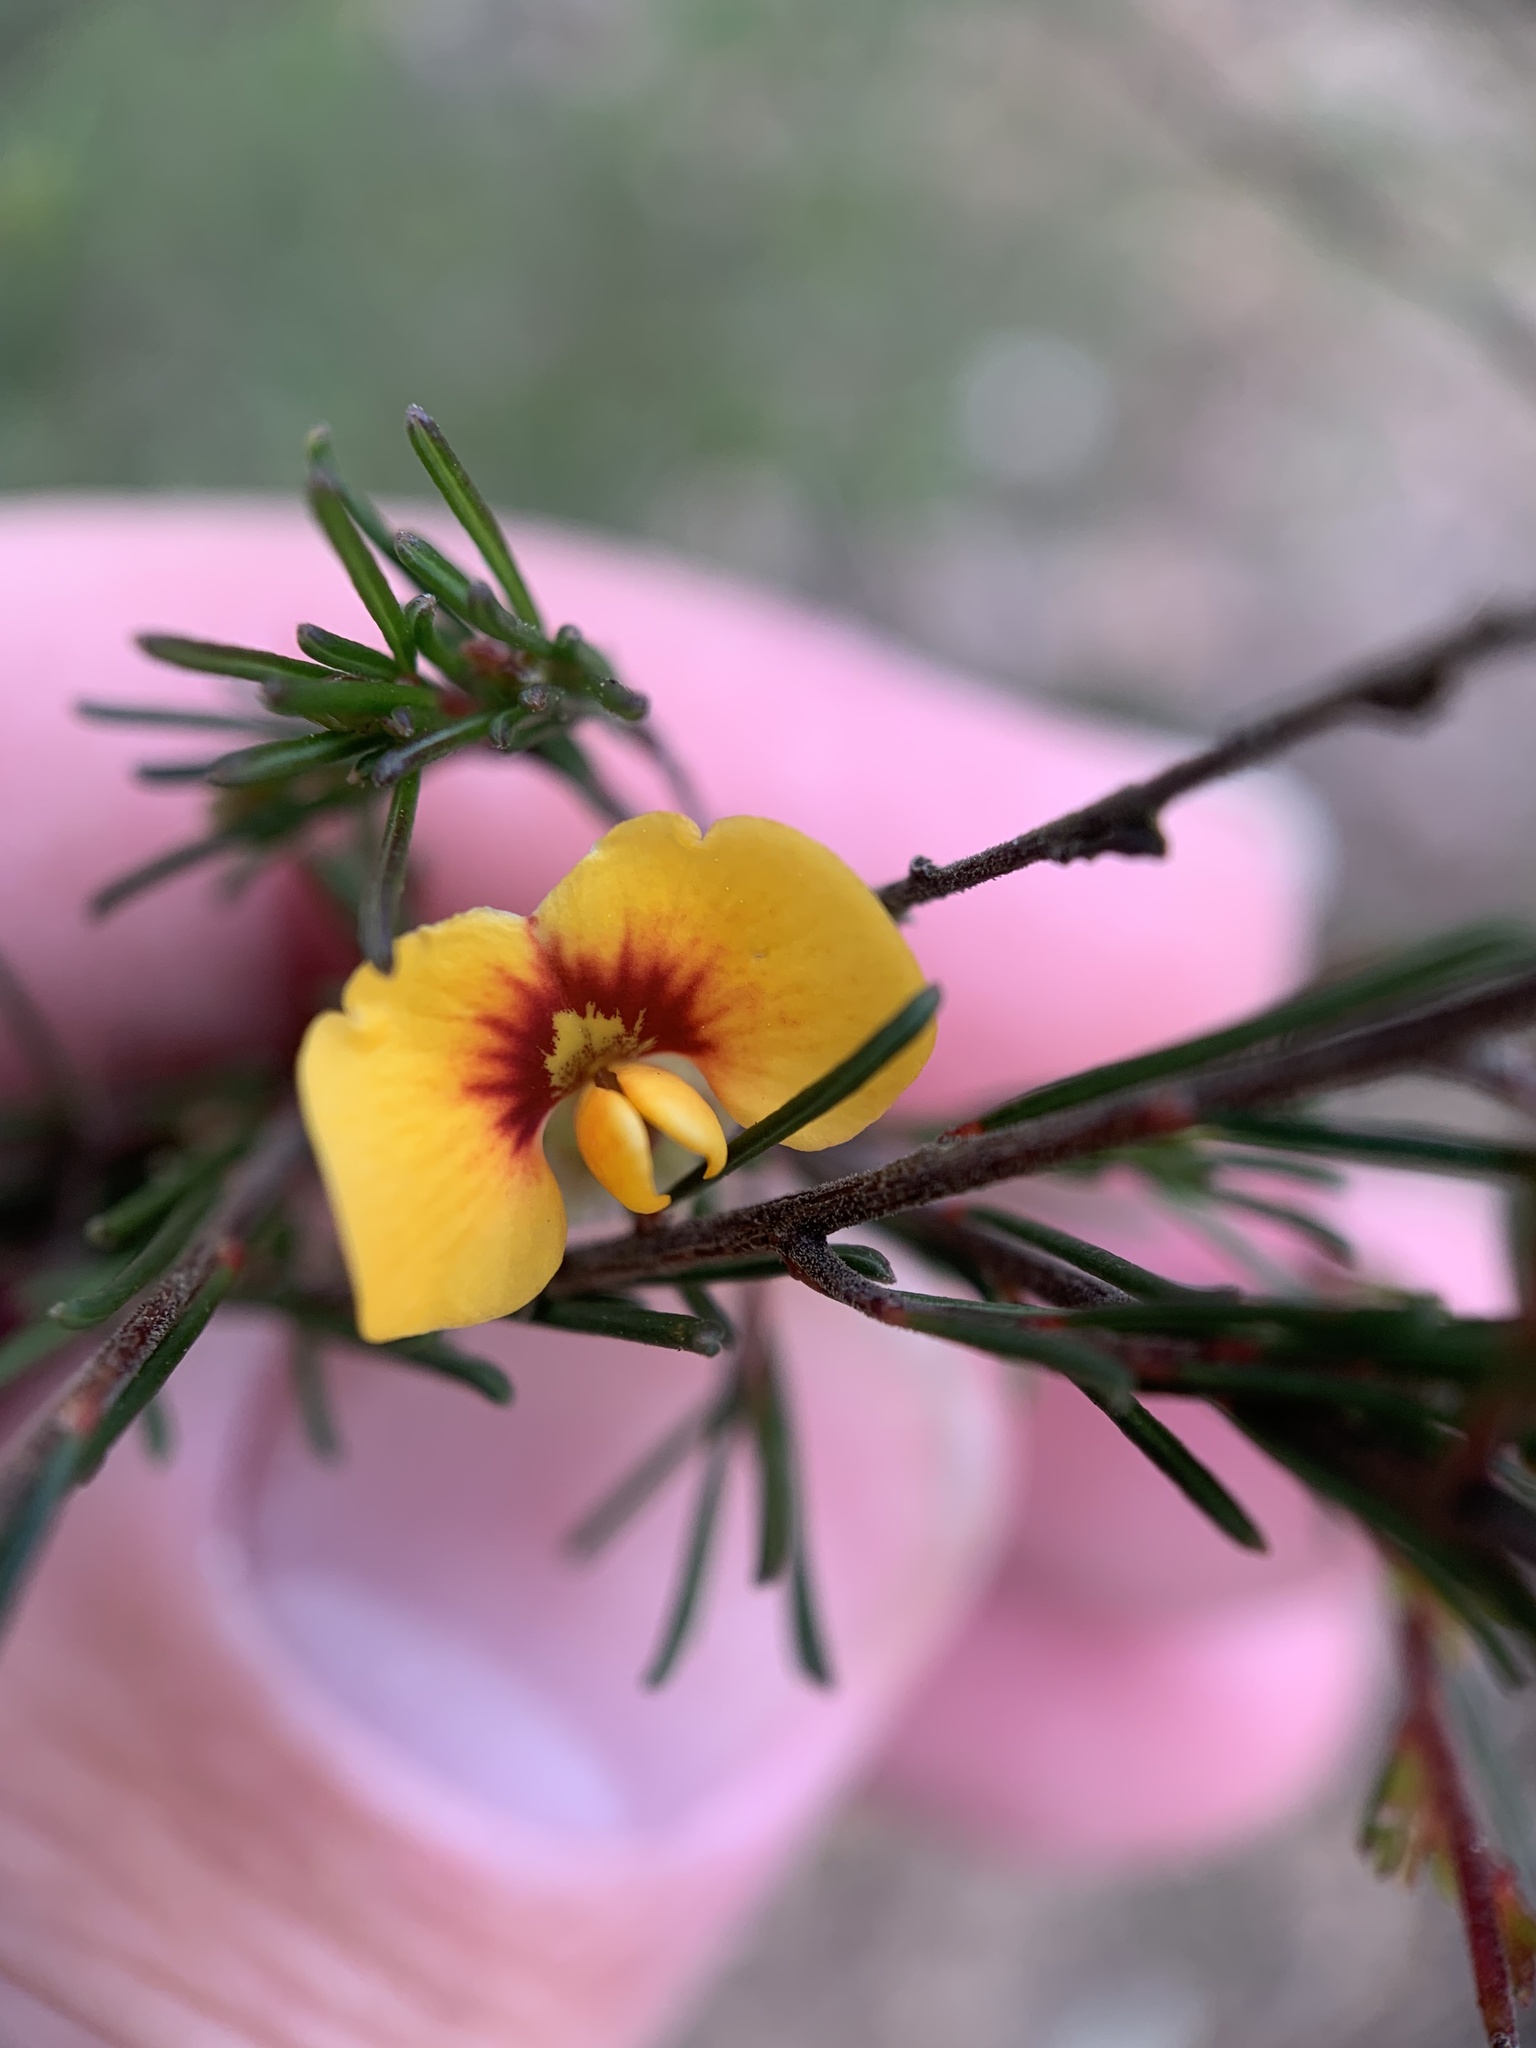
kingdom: Plantae
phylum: Tracheophyta
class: Magnoliopsida
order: Fabales
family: Fabaceae
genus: Dillwynia
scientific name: Dillwynia tenuifolia
